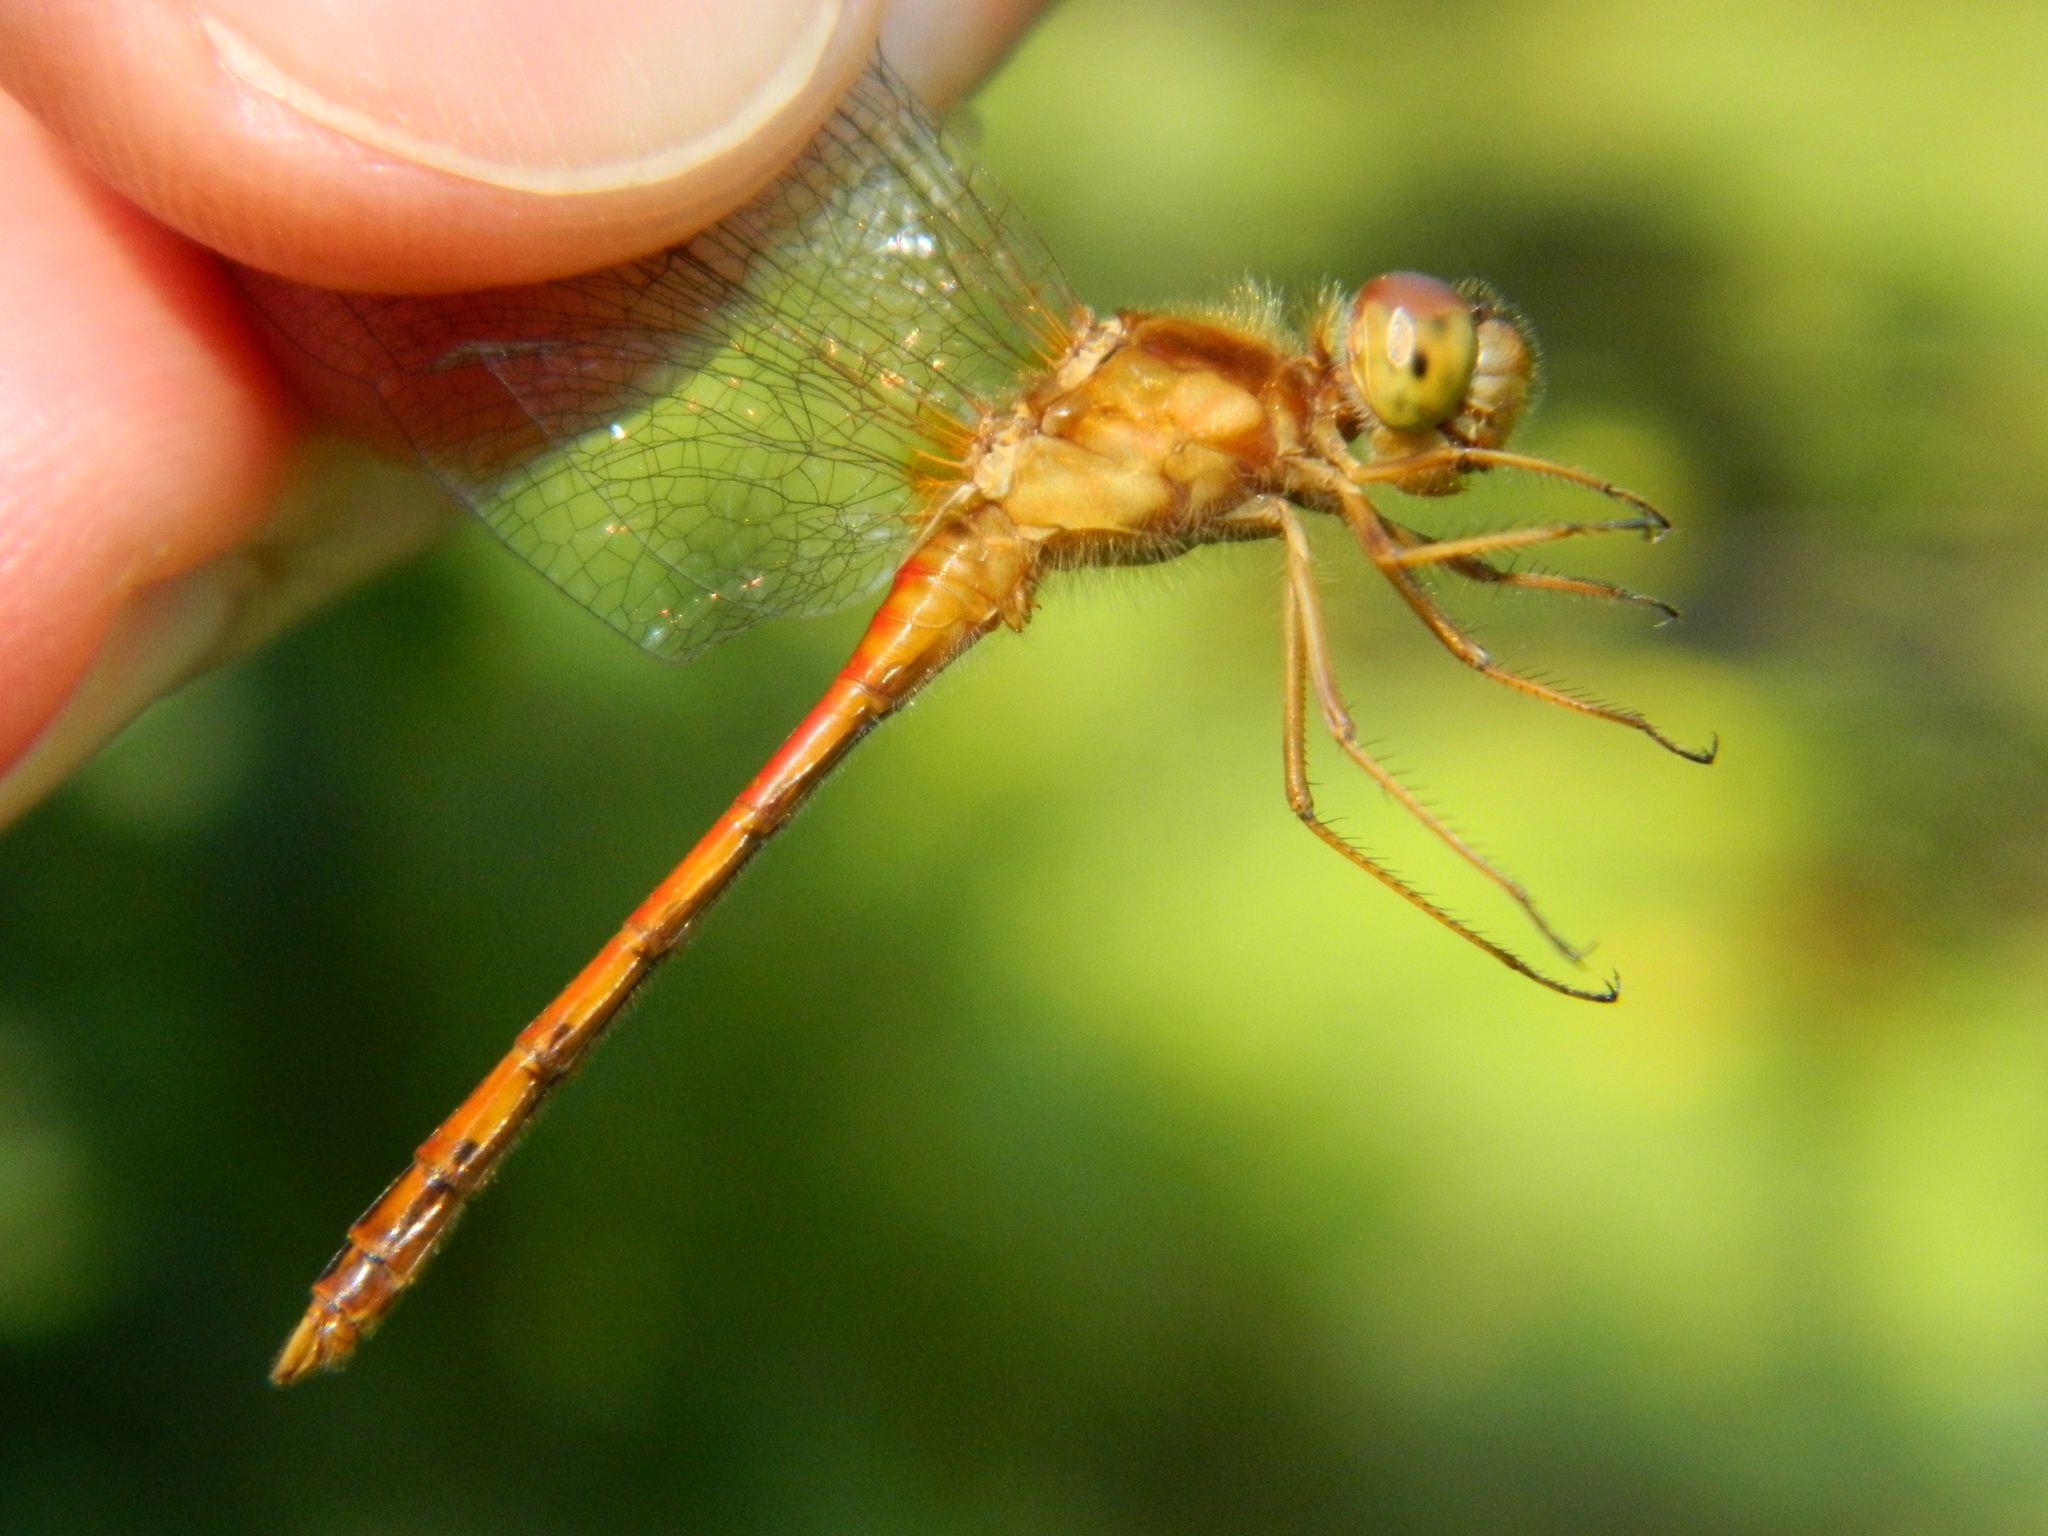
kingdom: Animalia
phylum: Arthropoda
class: Insecta
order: Odonata
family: Libellulidae
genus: Sympetrum
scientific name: Sympetrum vicinum
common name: Autumn meadowhawk
